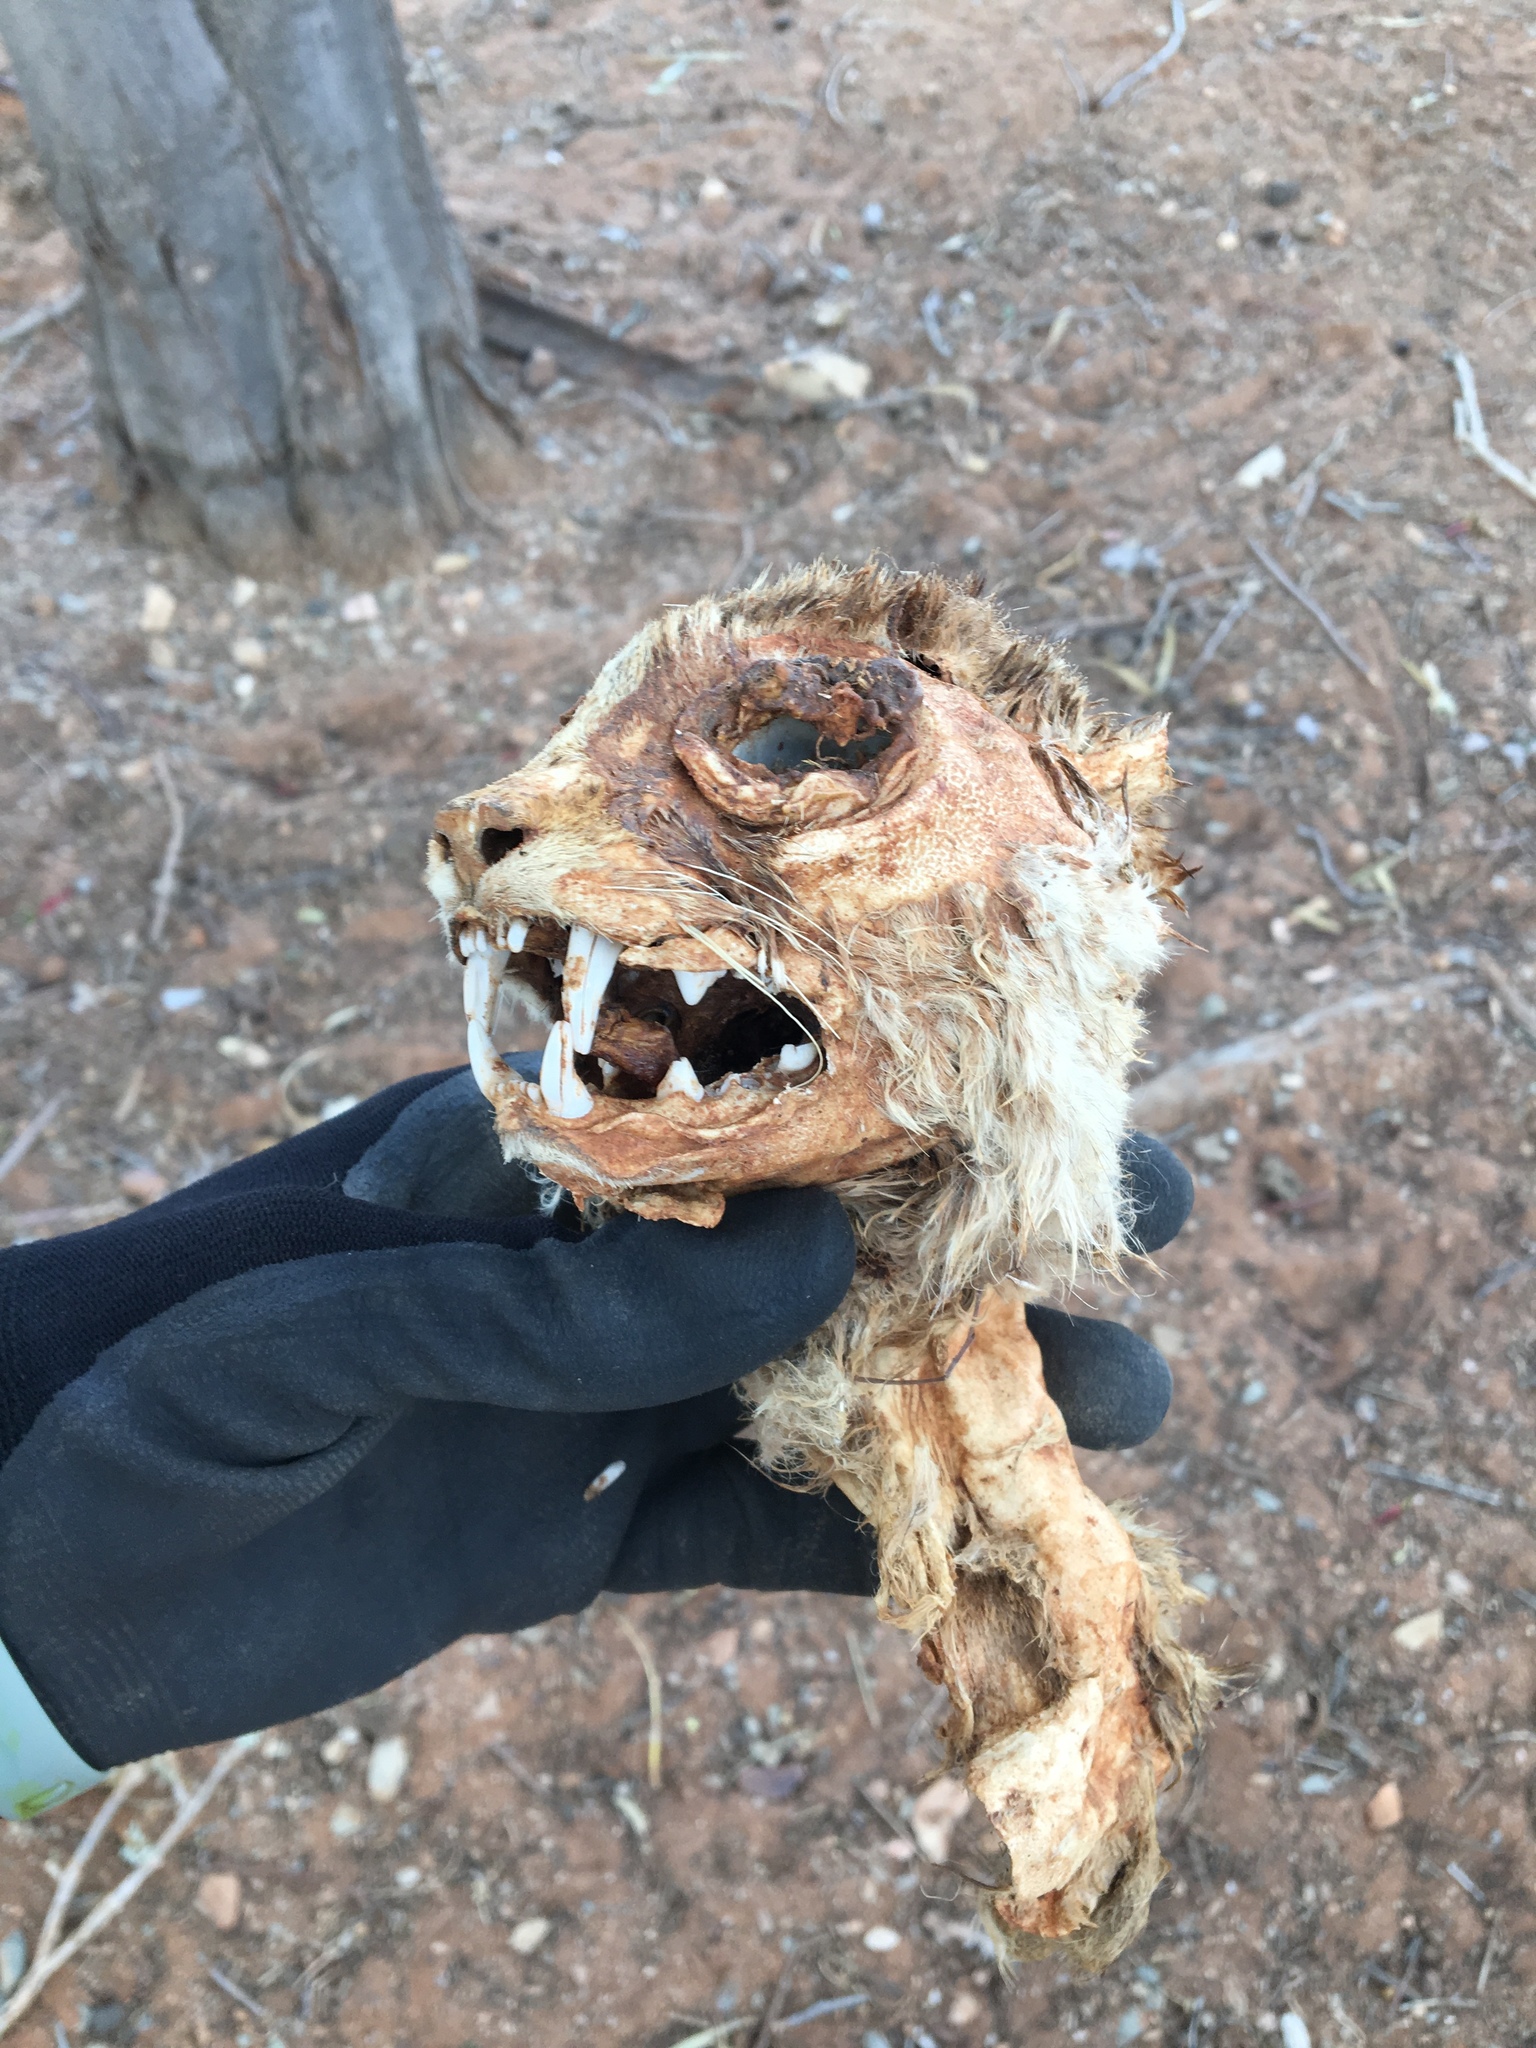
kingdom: Animalia
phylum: Chordata
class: Mammalia
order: Carnivora
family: Felidae
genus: Felis
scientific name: Felis catus
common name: Domestic cat
